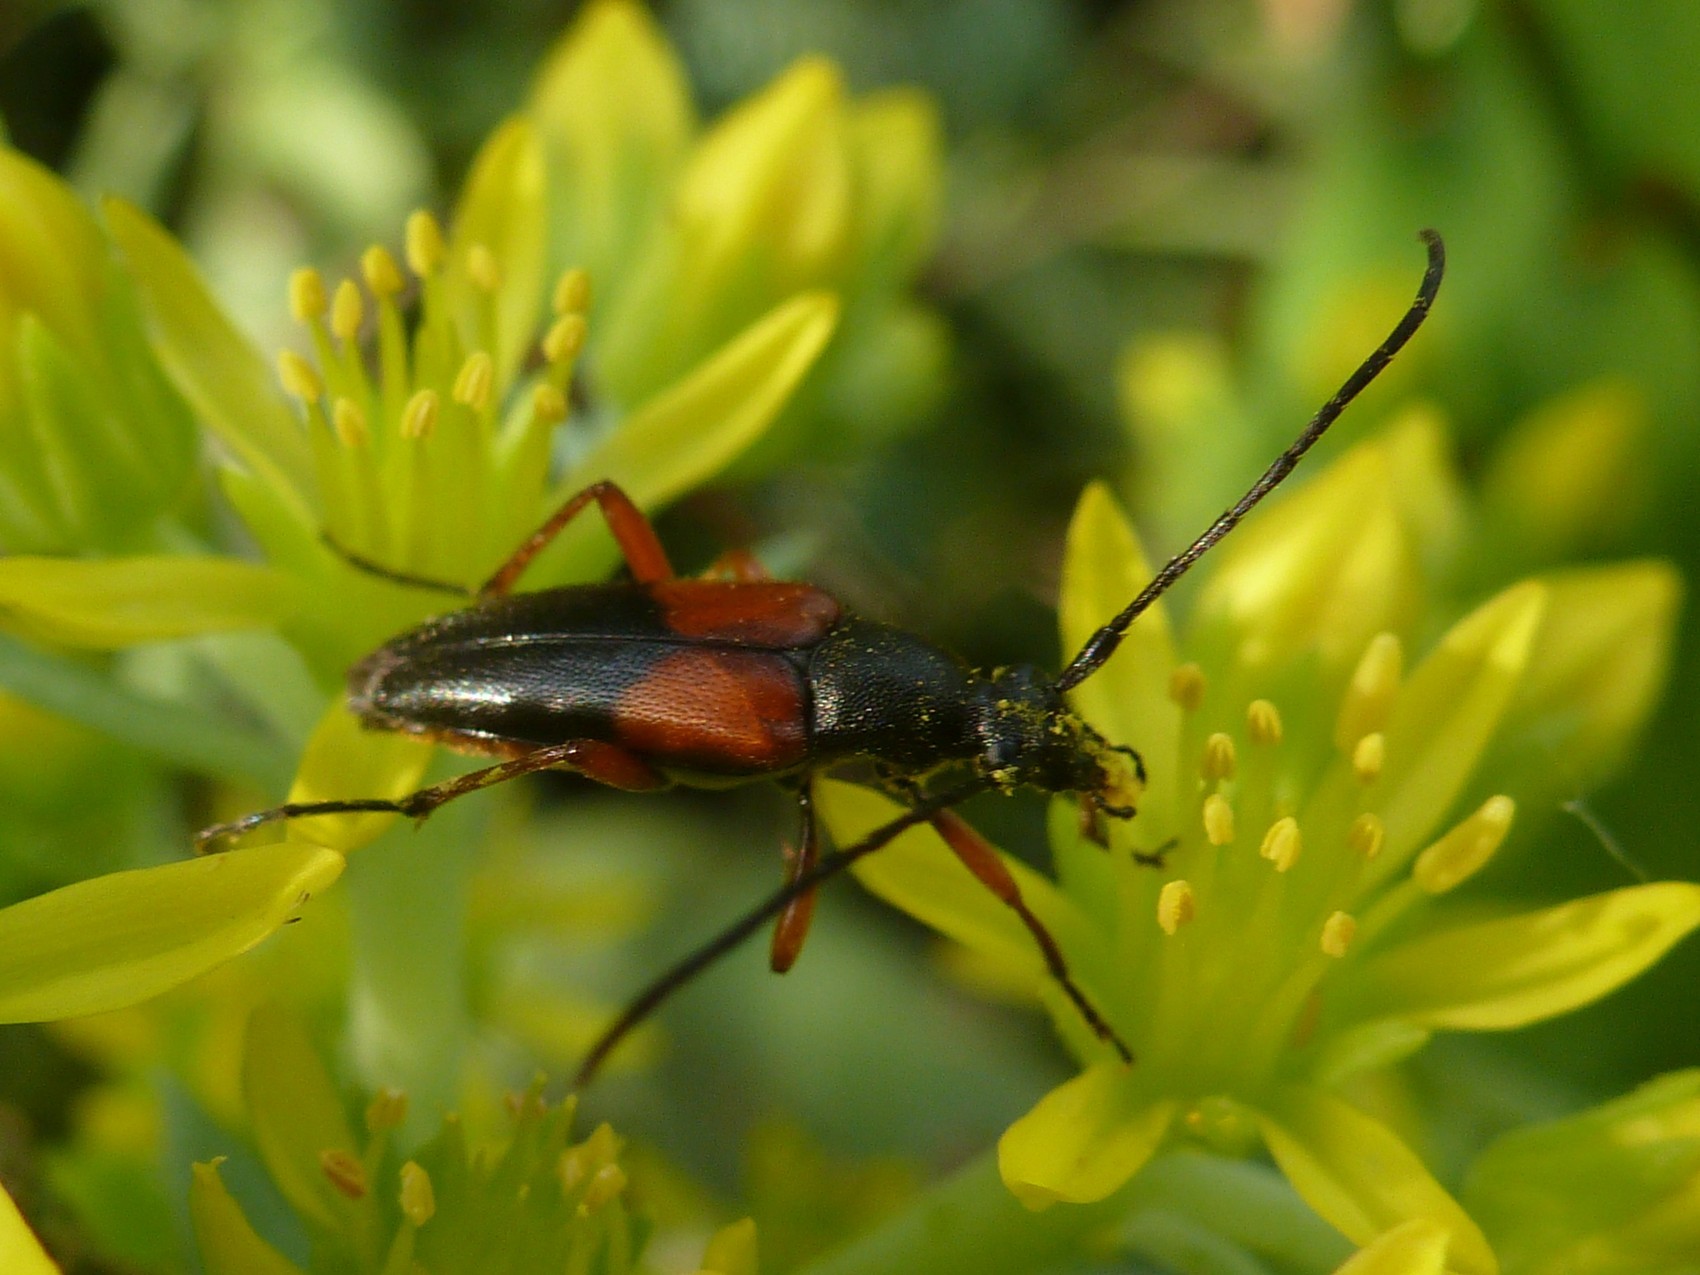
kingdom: Animalia
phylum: Arthropoda
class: Insecta
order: Coleoptera
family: Cerambycidae
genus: Stenurella
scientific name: Stenurella jaegeri
